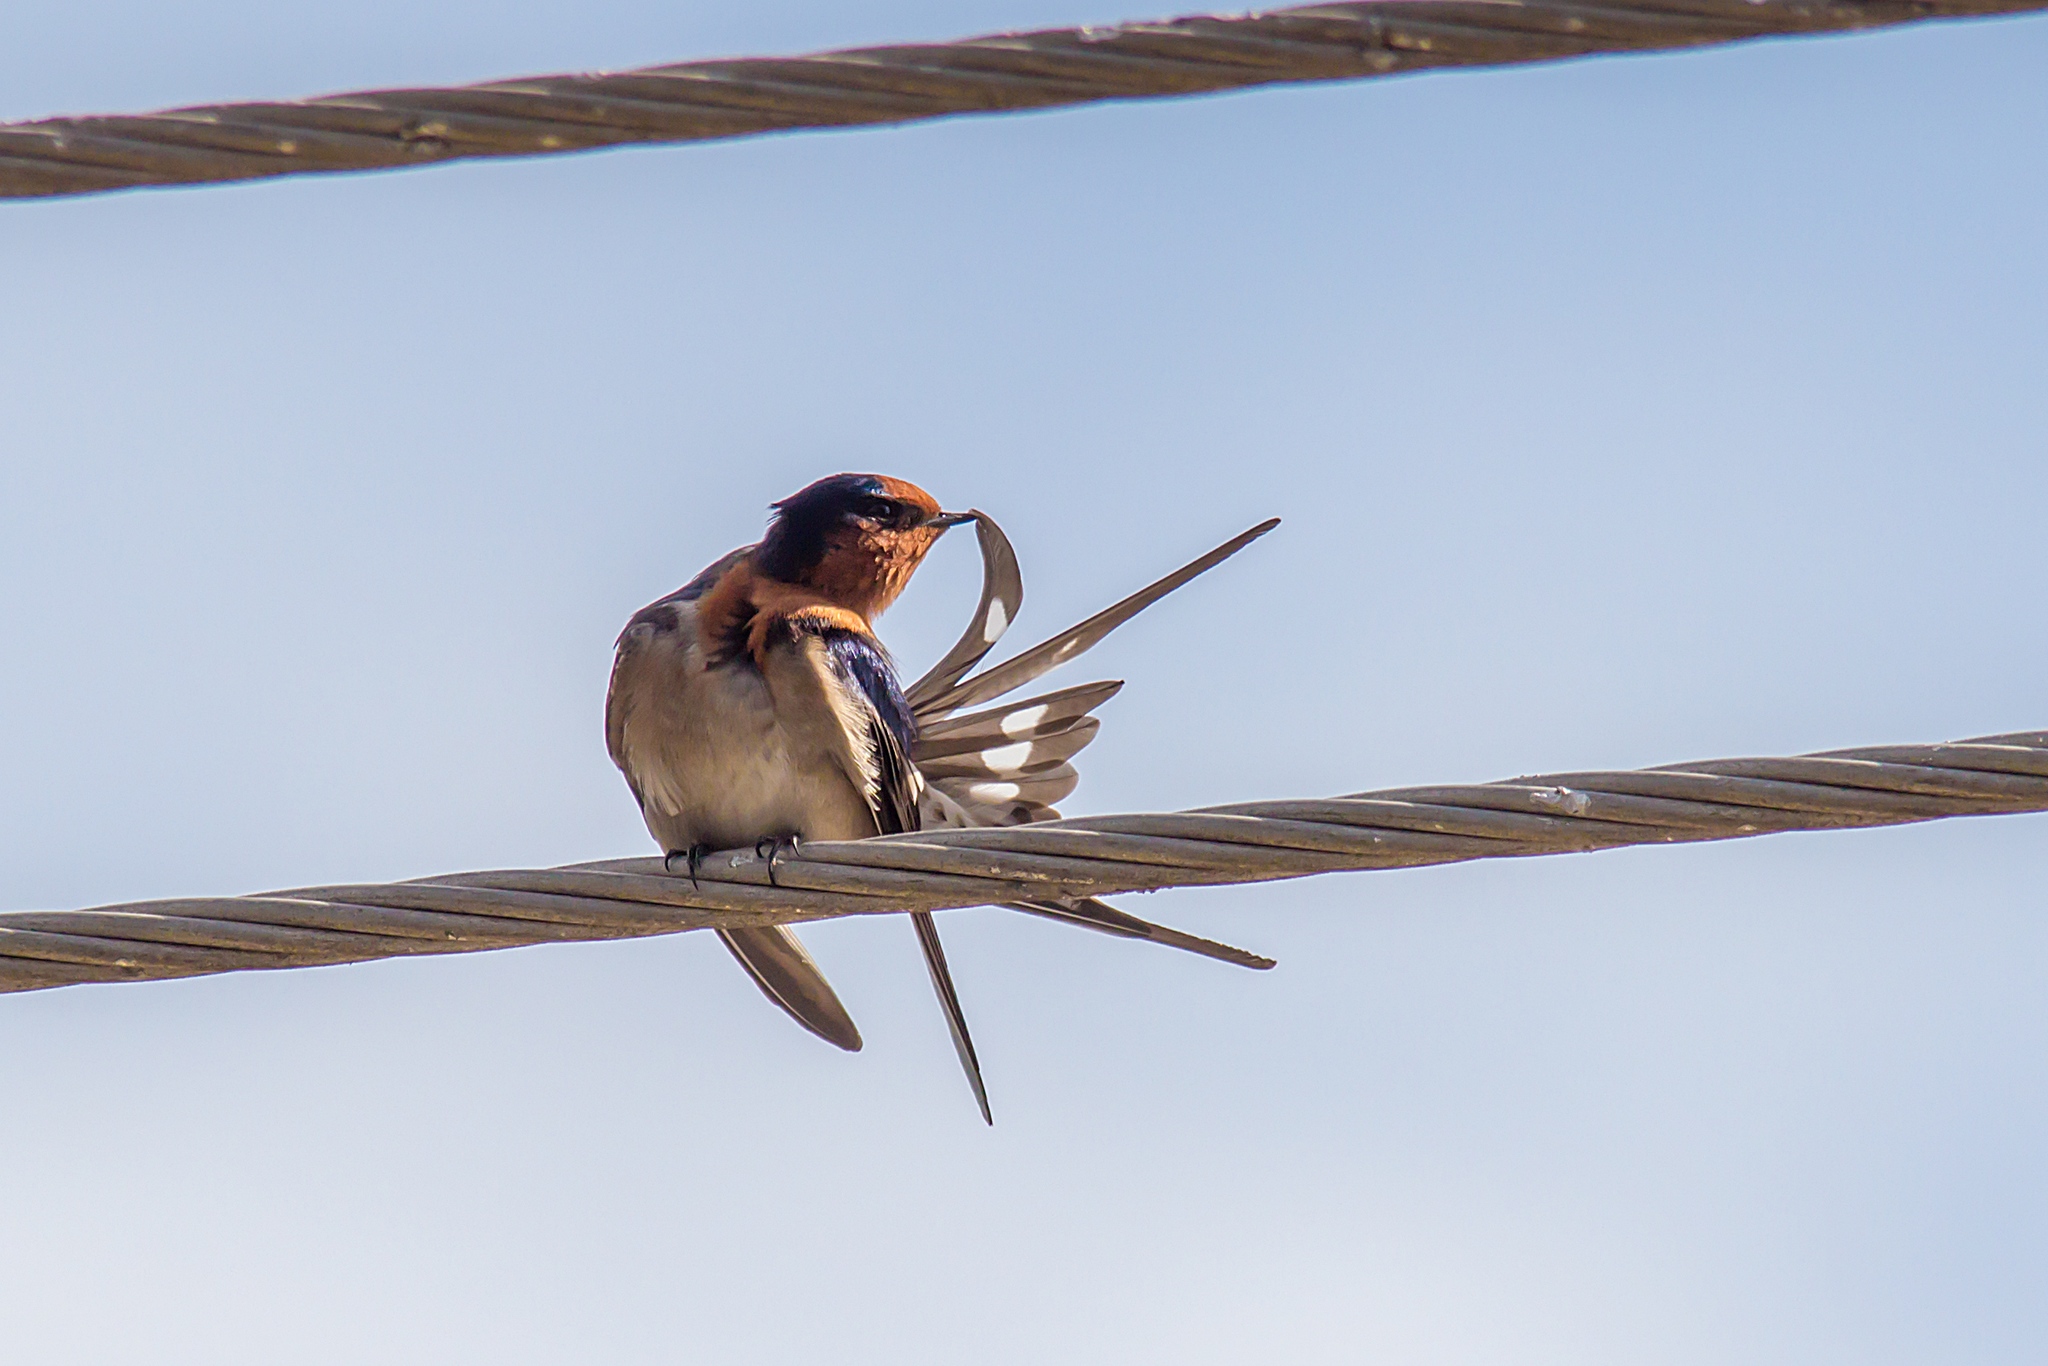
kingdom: Animalia
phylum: Chordata
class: Aves
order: Passeriformes
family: Hirundinidae
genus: Hirundo
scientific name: Hirundo neoxena
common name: Welcome swallow
